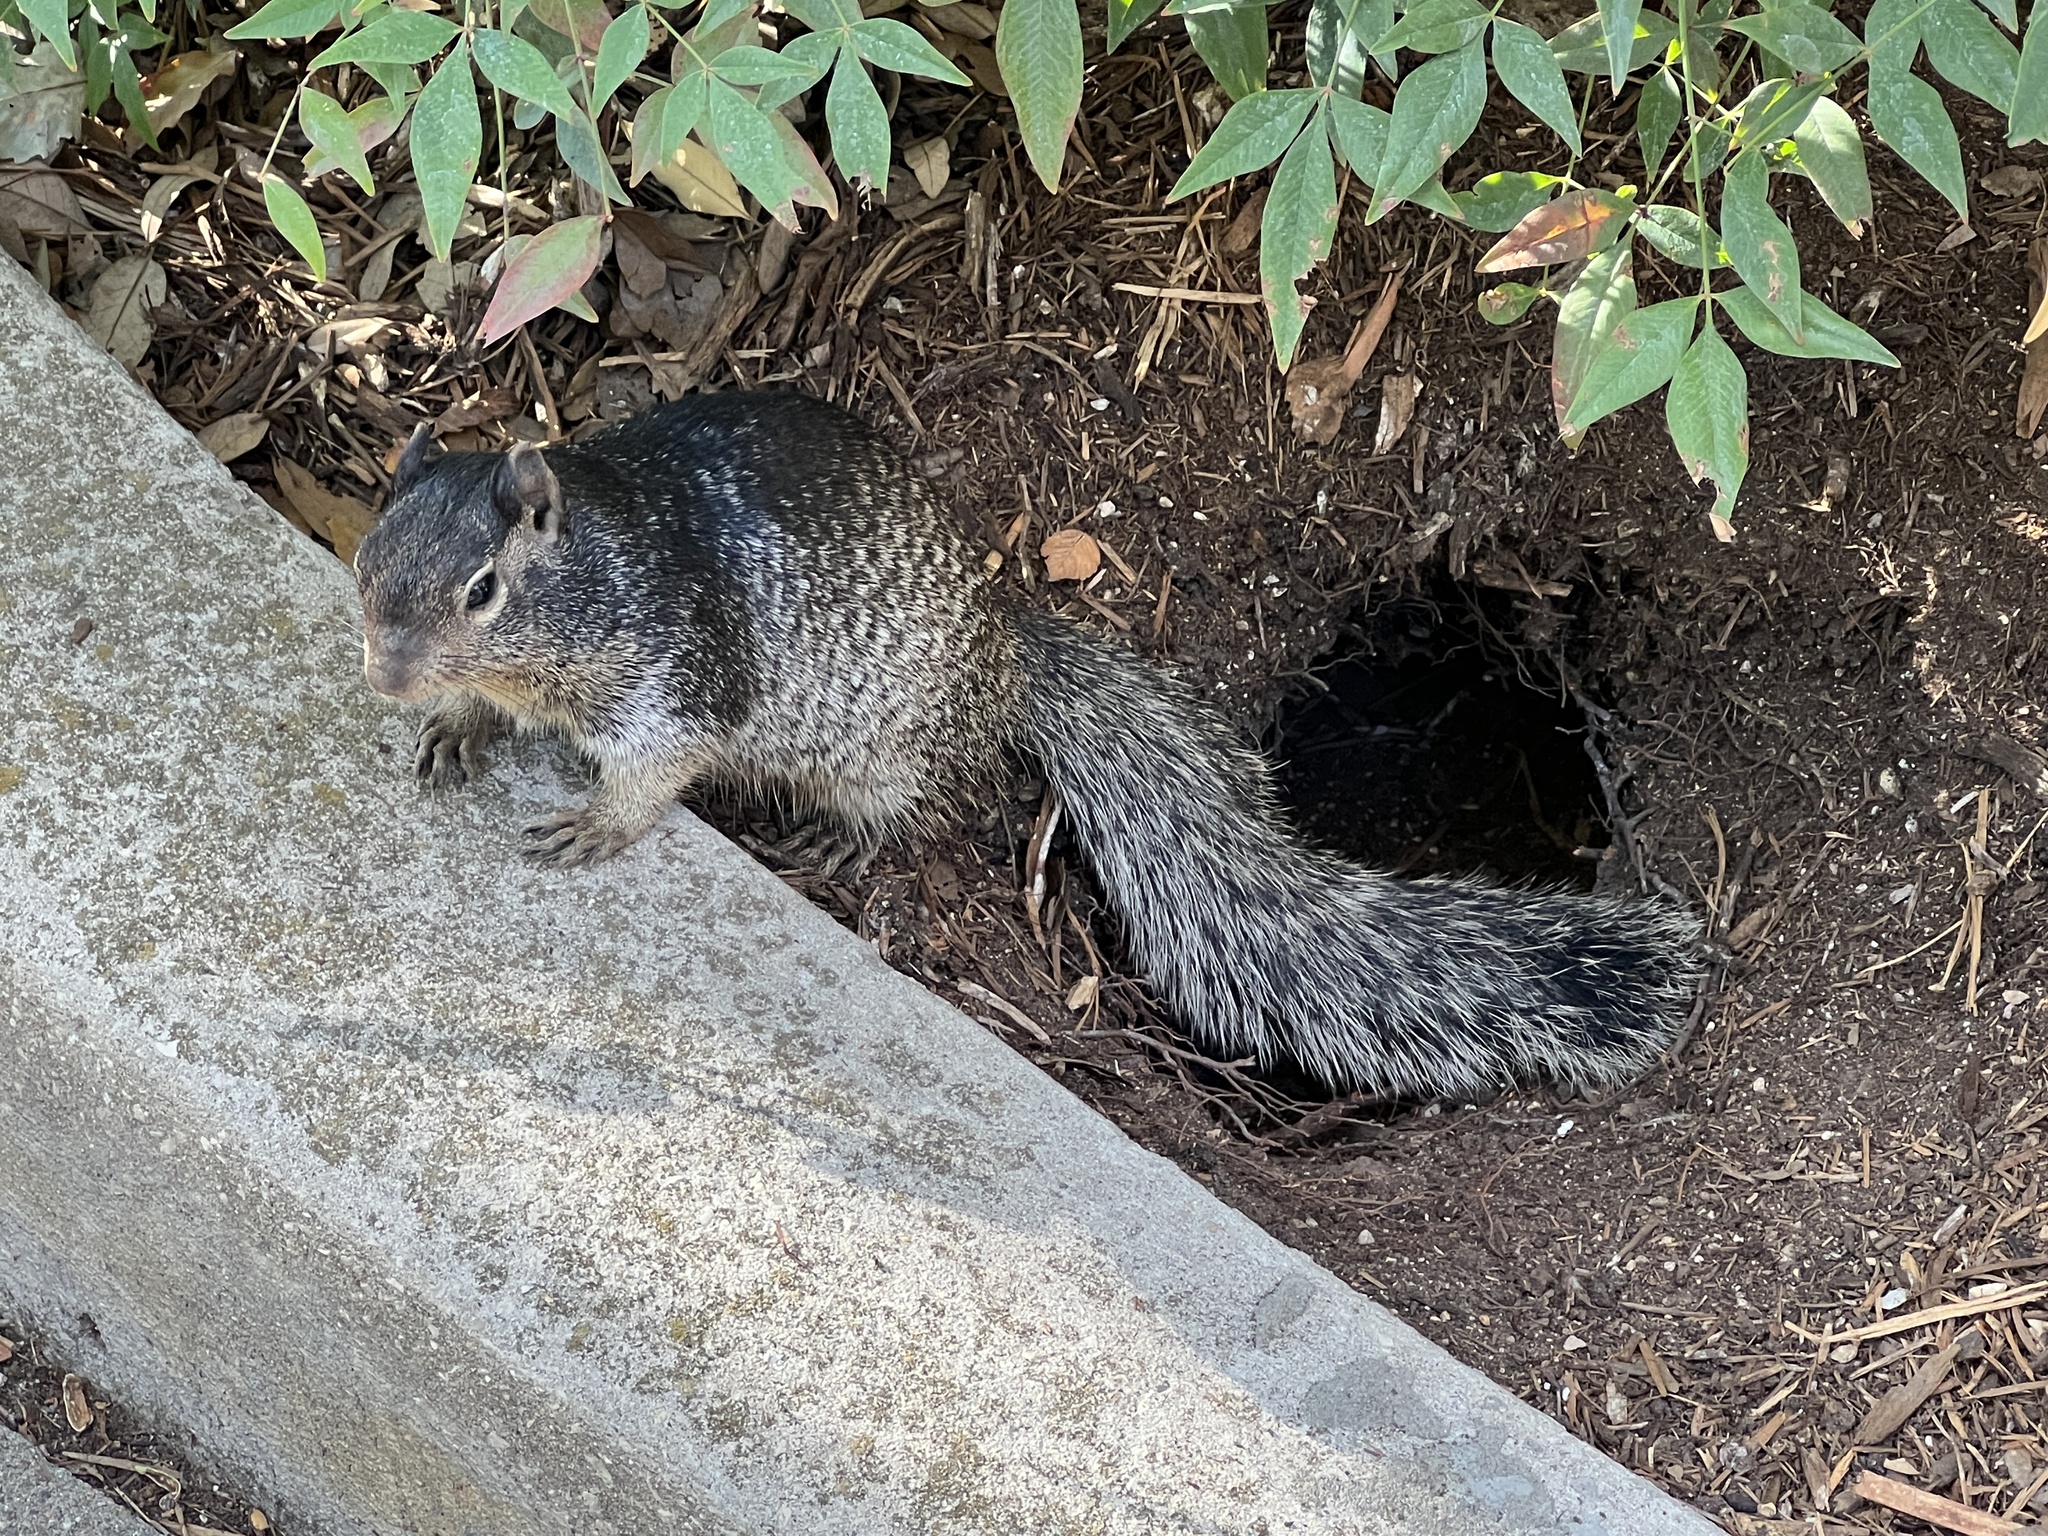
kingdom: Animalia
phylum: Chordata
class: Mammalia
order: Rodentia
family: Sciuridae
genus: Otospermophilus
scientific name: Otospermophilus variegatus
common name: Rock squirrel
